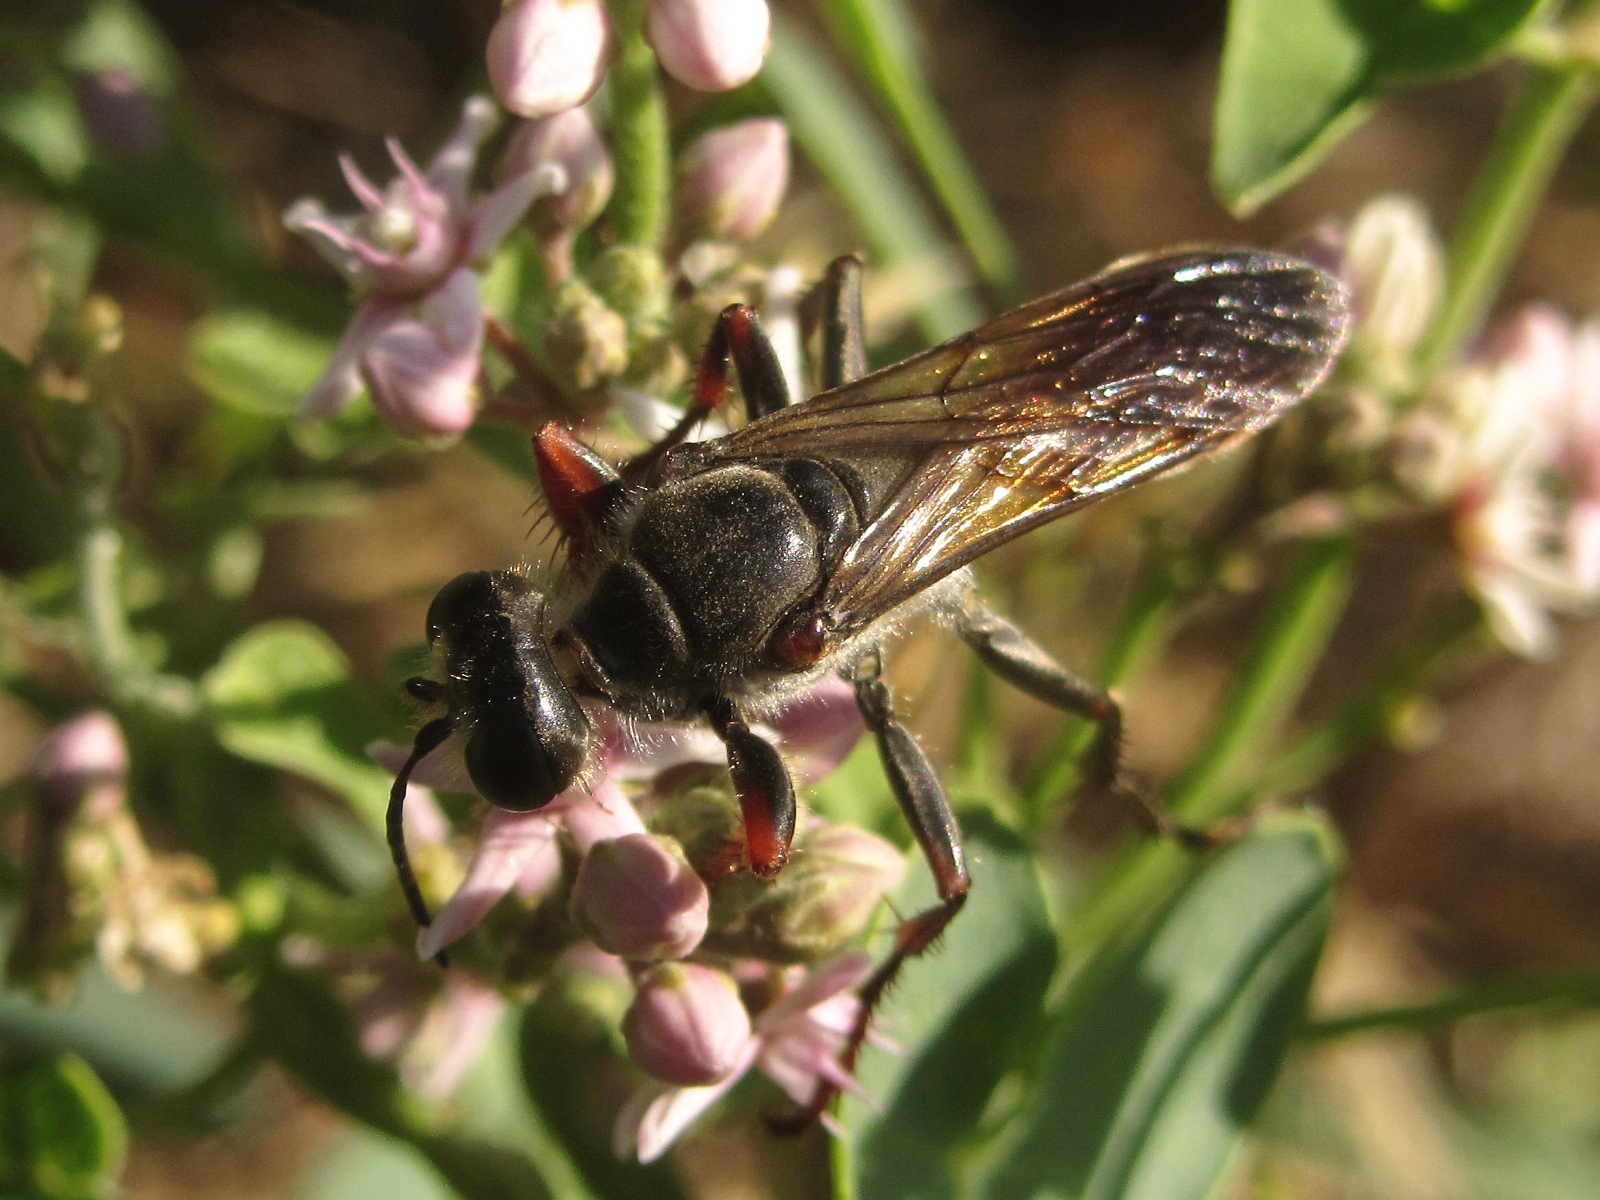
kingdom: Animalia
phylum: Arthropoda
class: Insecta
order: Hymenoptera
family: Sphecidae
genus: Sphex
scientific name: Sphex
